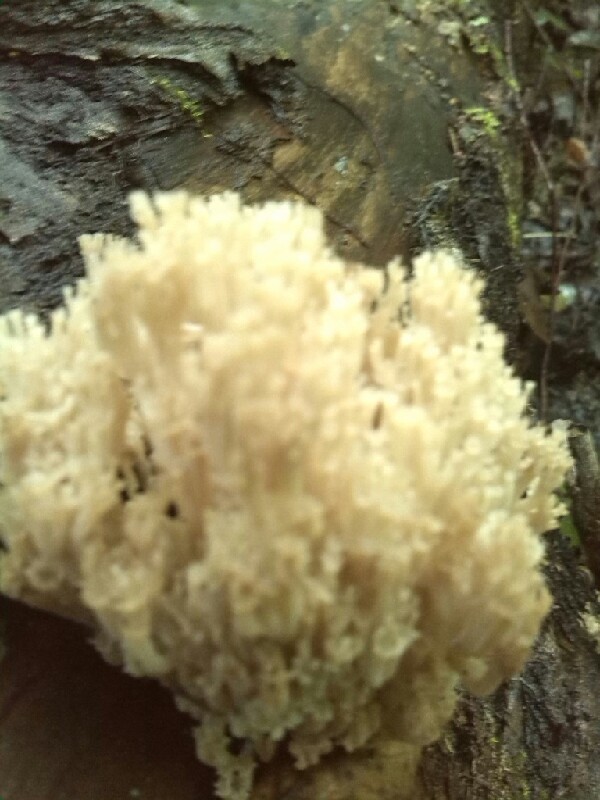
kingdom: Fungi
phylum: Basidiomycota
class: Agaricomycetes
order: Russulales
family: Auriscalpiaceae
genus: Artomyces
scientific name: Artomyces pyxidatus
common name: Crown-tipped coral fungus
